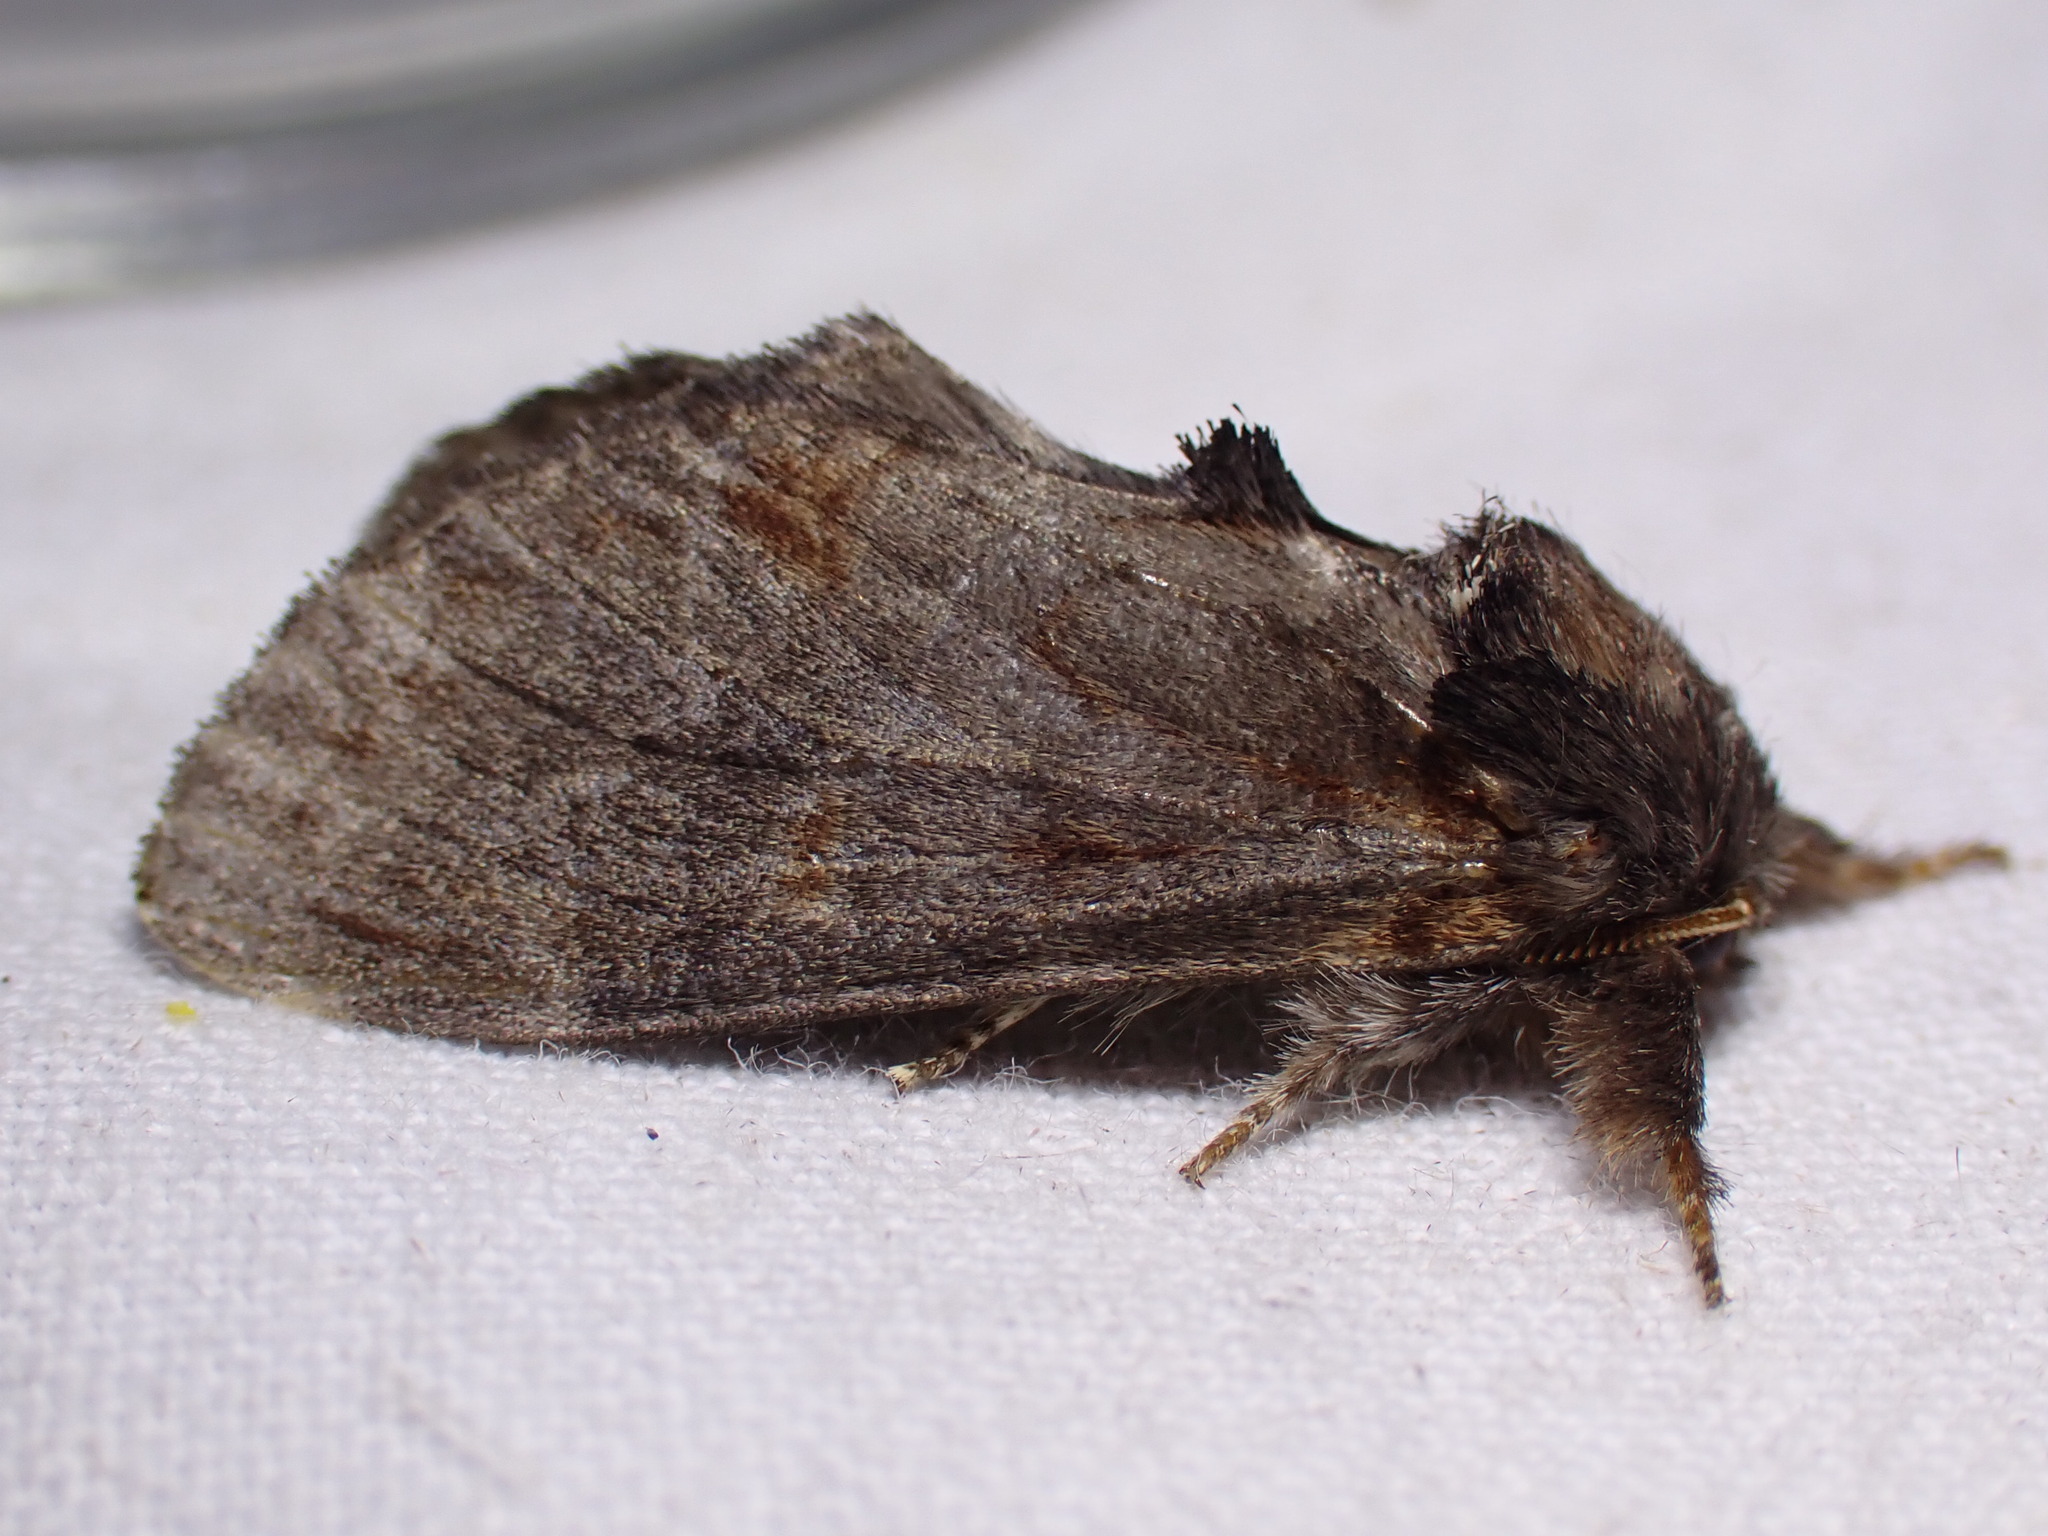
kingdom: Animalia
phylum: Arthropoda
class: Insecta
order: Lepidoptera
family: Notodontidae
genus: Notodonta
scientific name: Notodonta dromedarius
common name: Iron prominent
